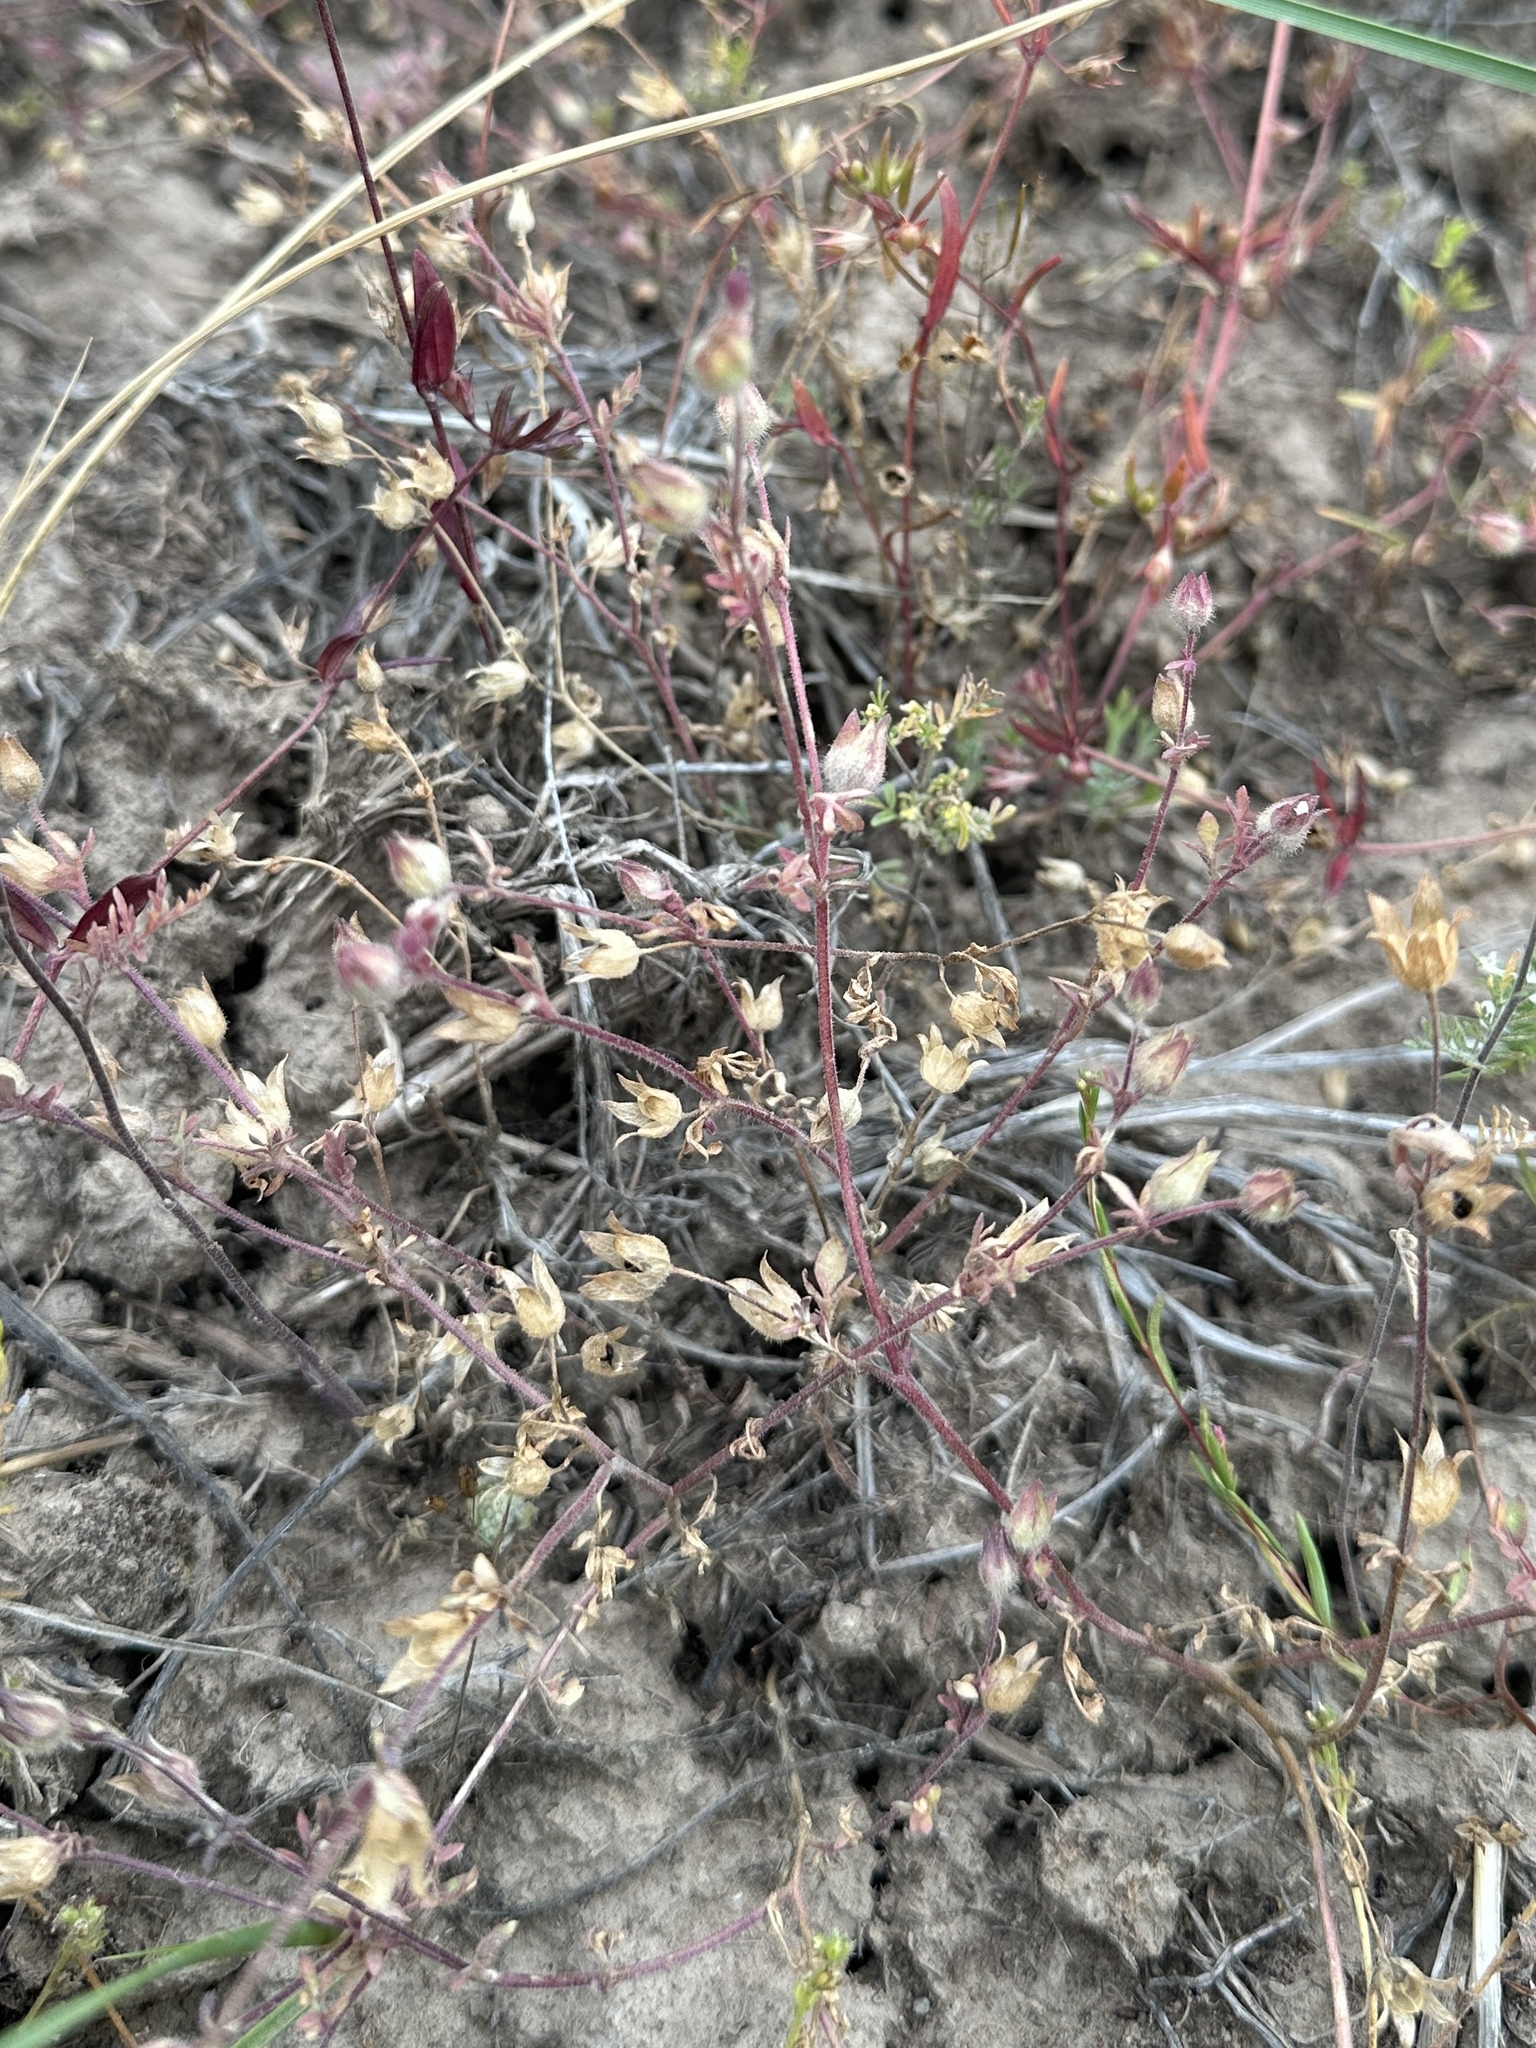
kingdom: Plantae
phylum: Tracheophyta
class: Magnoliopsida
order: Ericales
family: Polemoniaceae
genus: Polemonium
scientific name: Polemonium micranthum
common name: Annual jacob's-ladder
